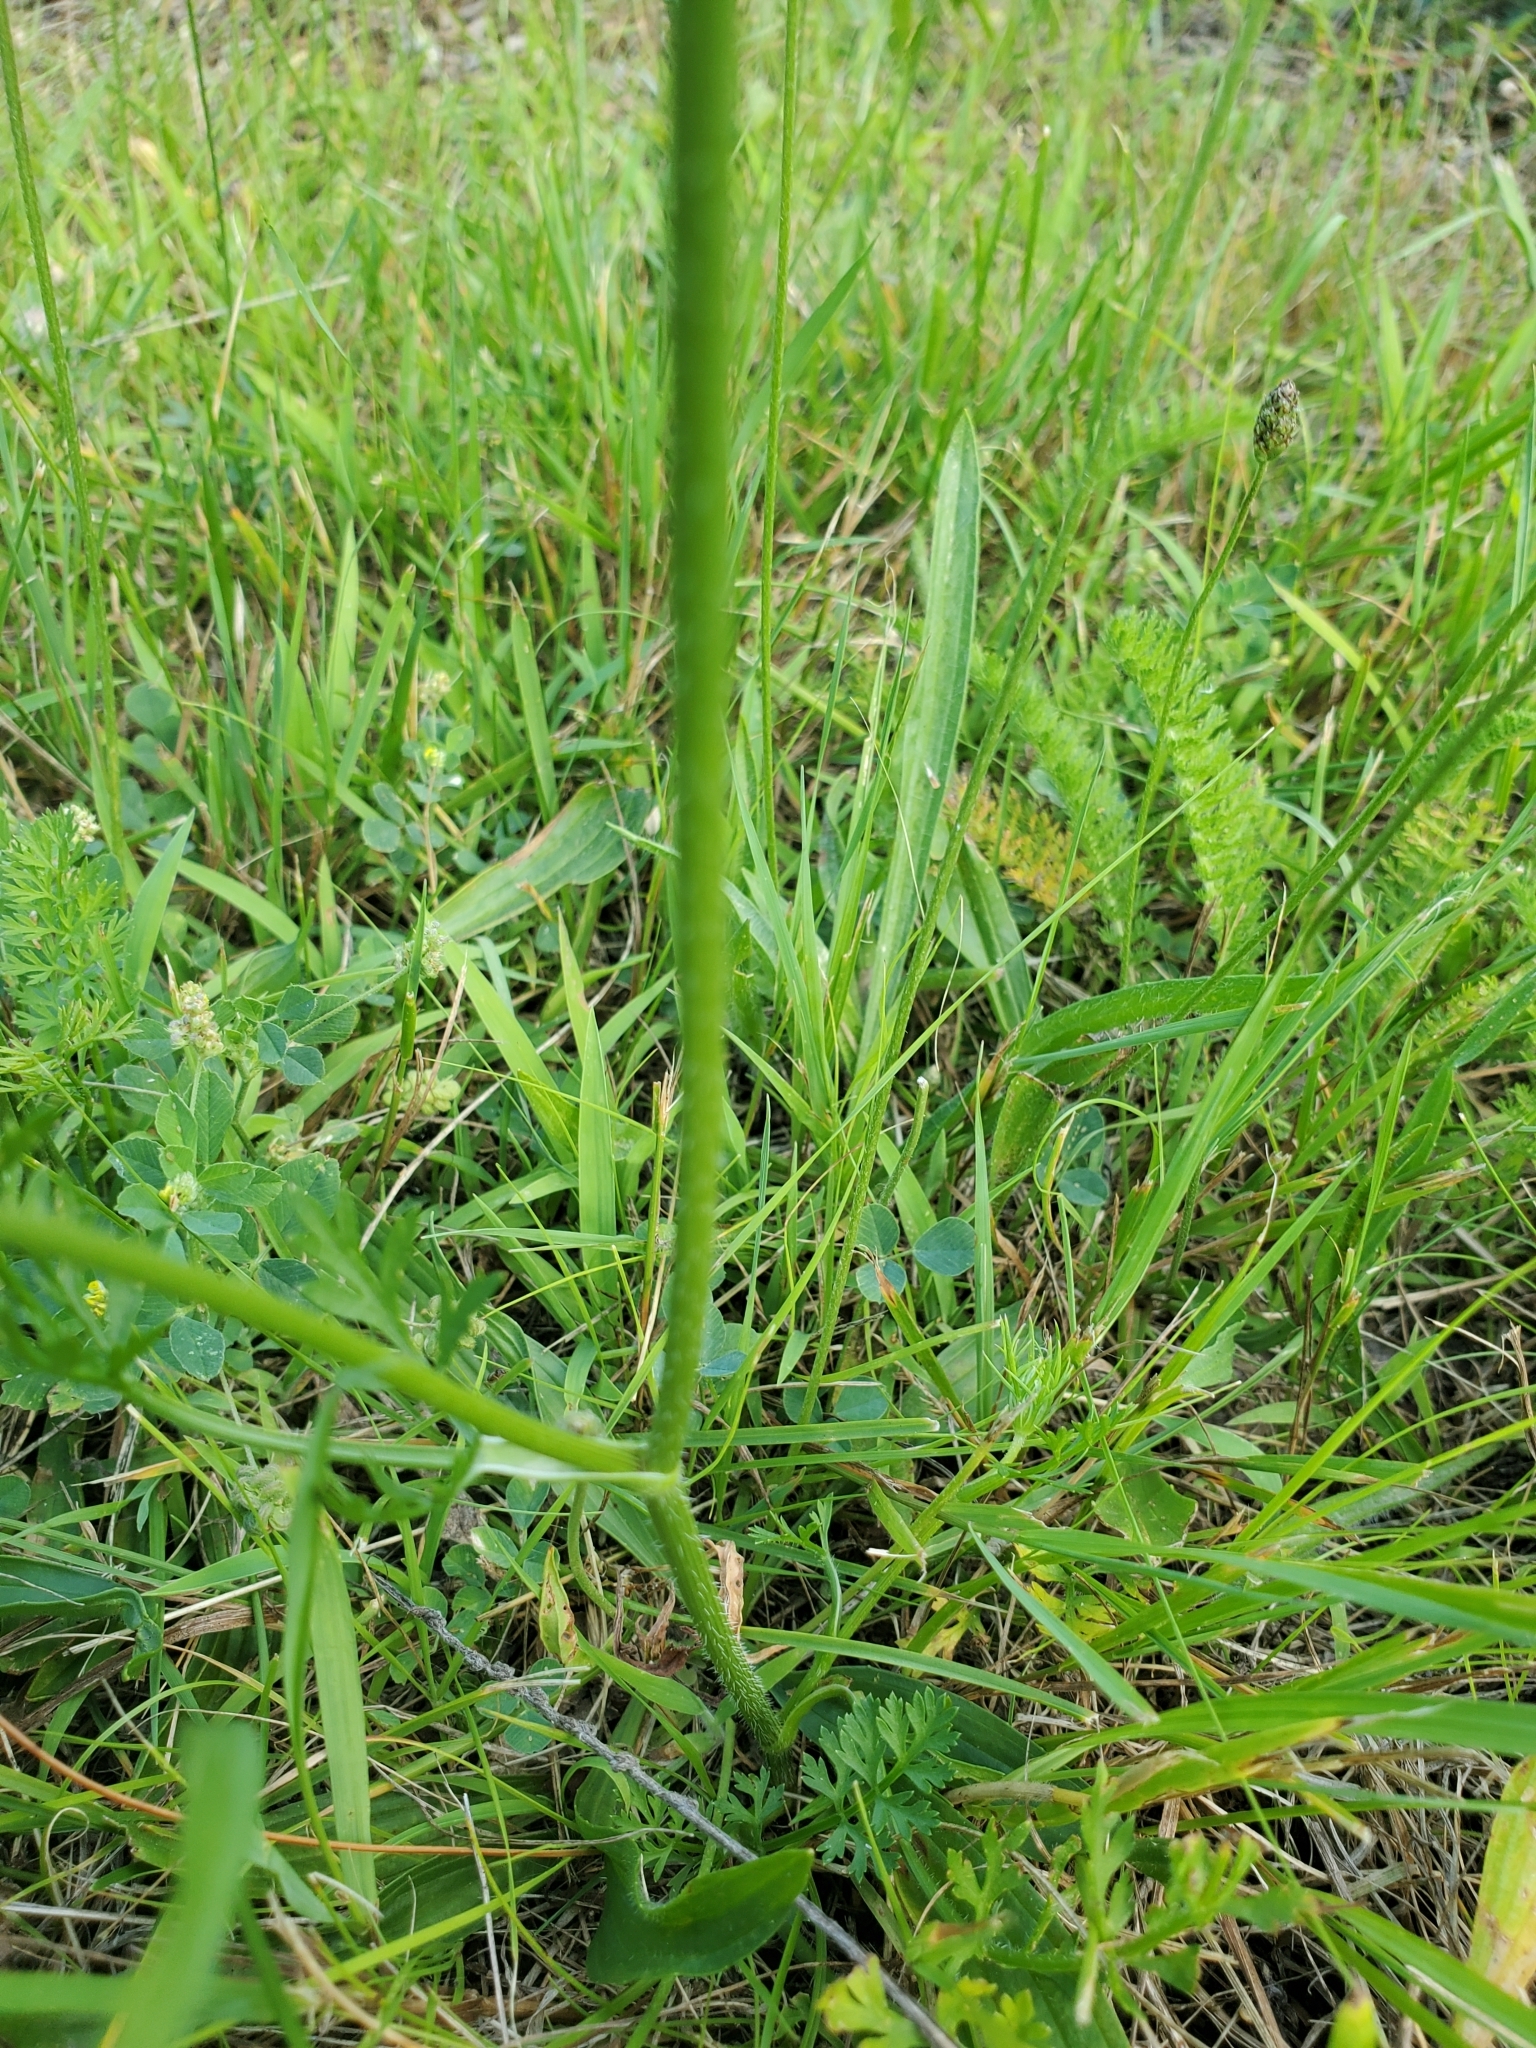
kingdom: Plantae
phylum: Tracheophyta
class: Magnoliopsida
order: Apiales
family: Apiaceae
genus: Daucus
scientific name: Daucus carota
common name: Wild carrot
